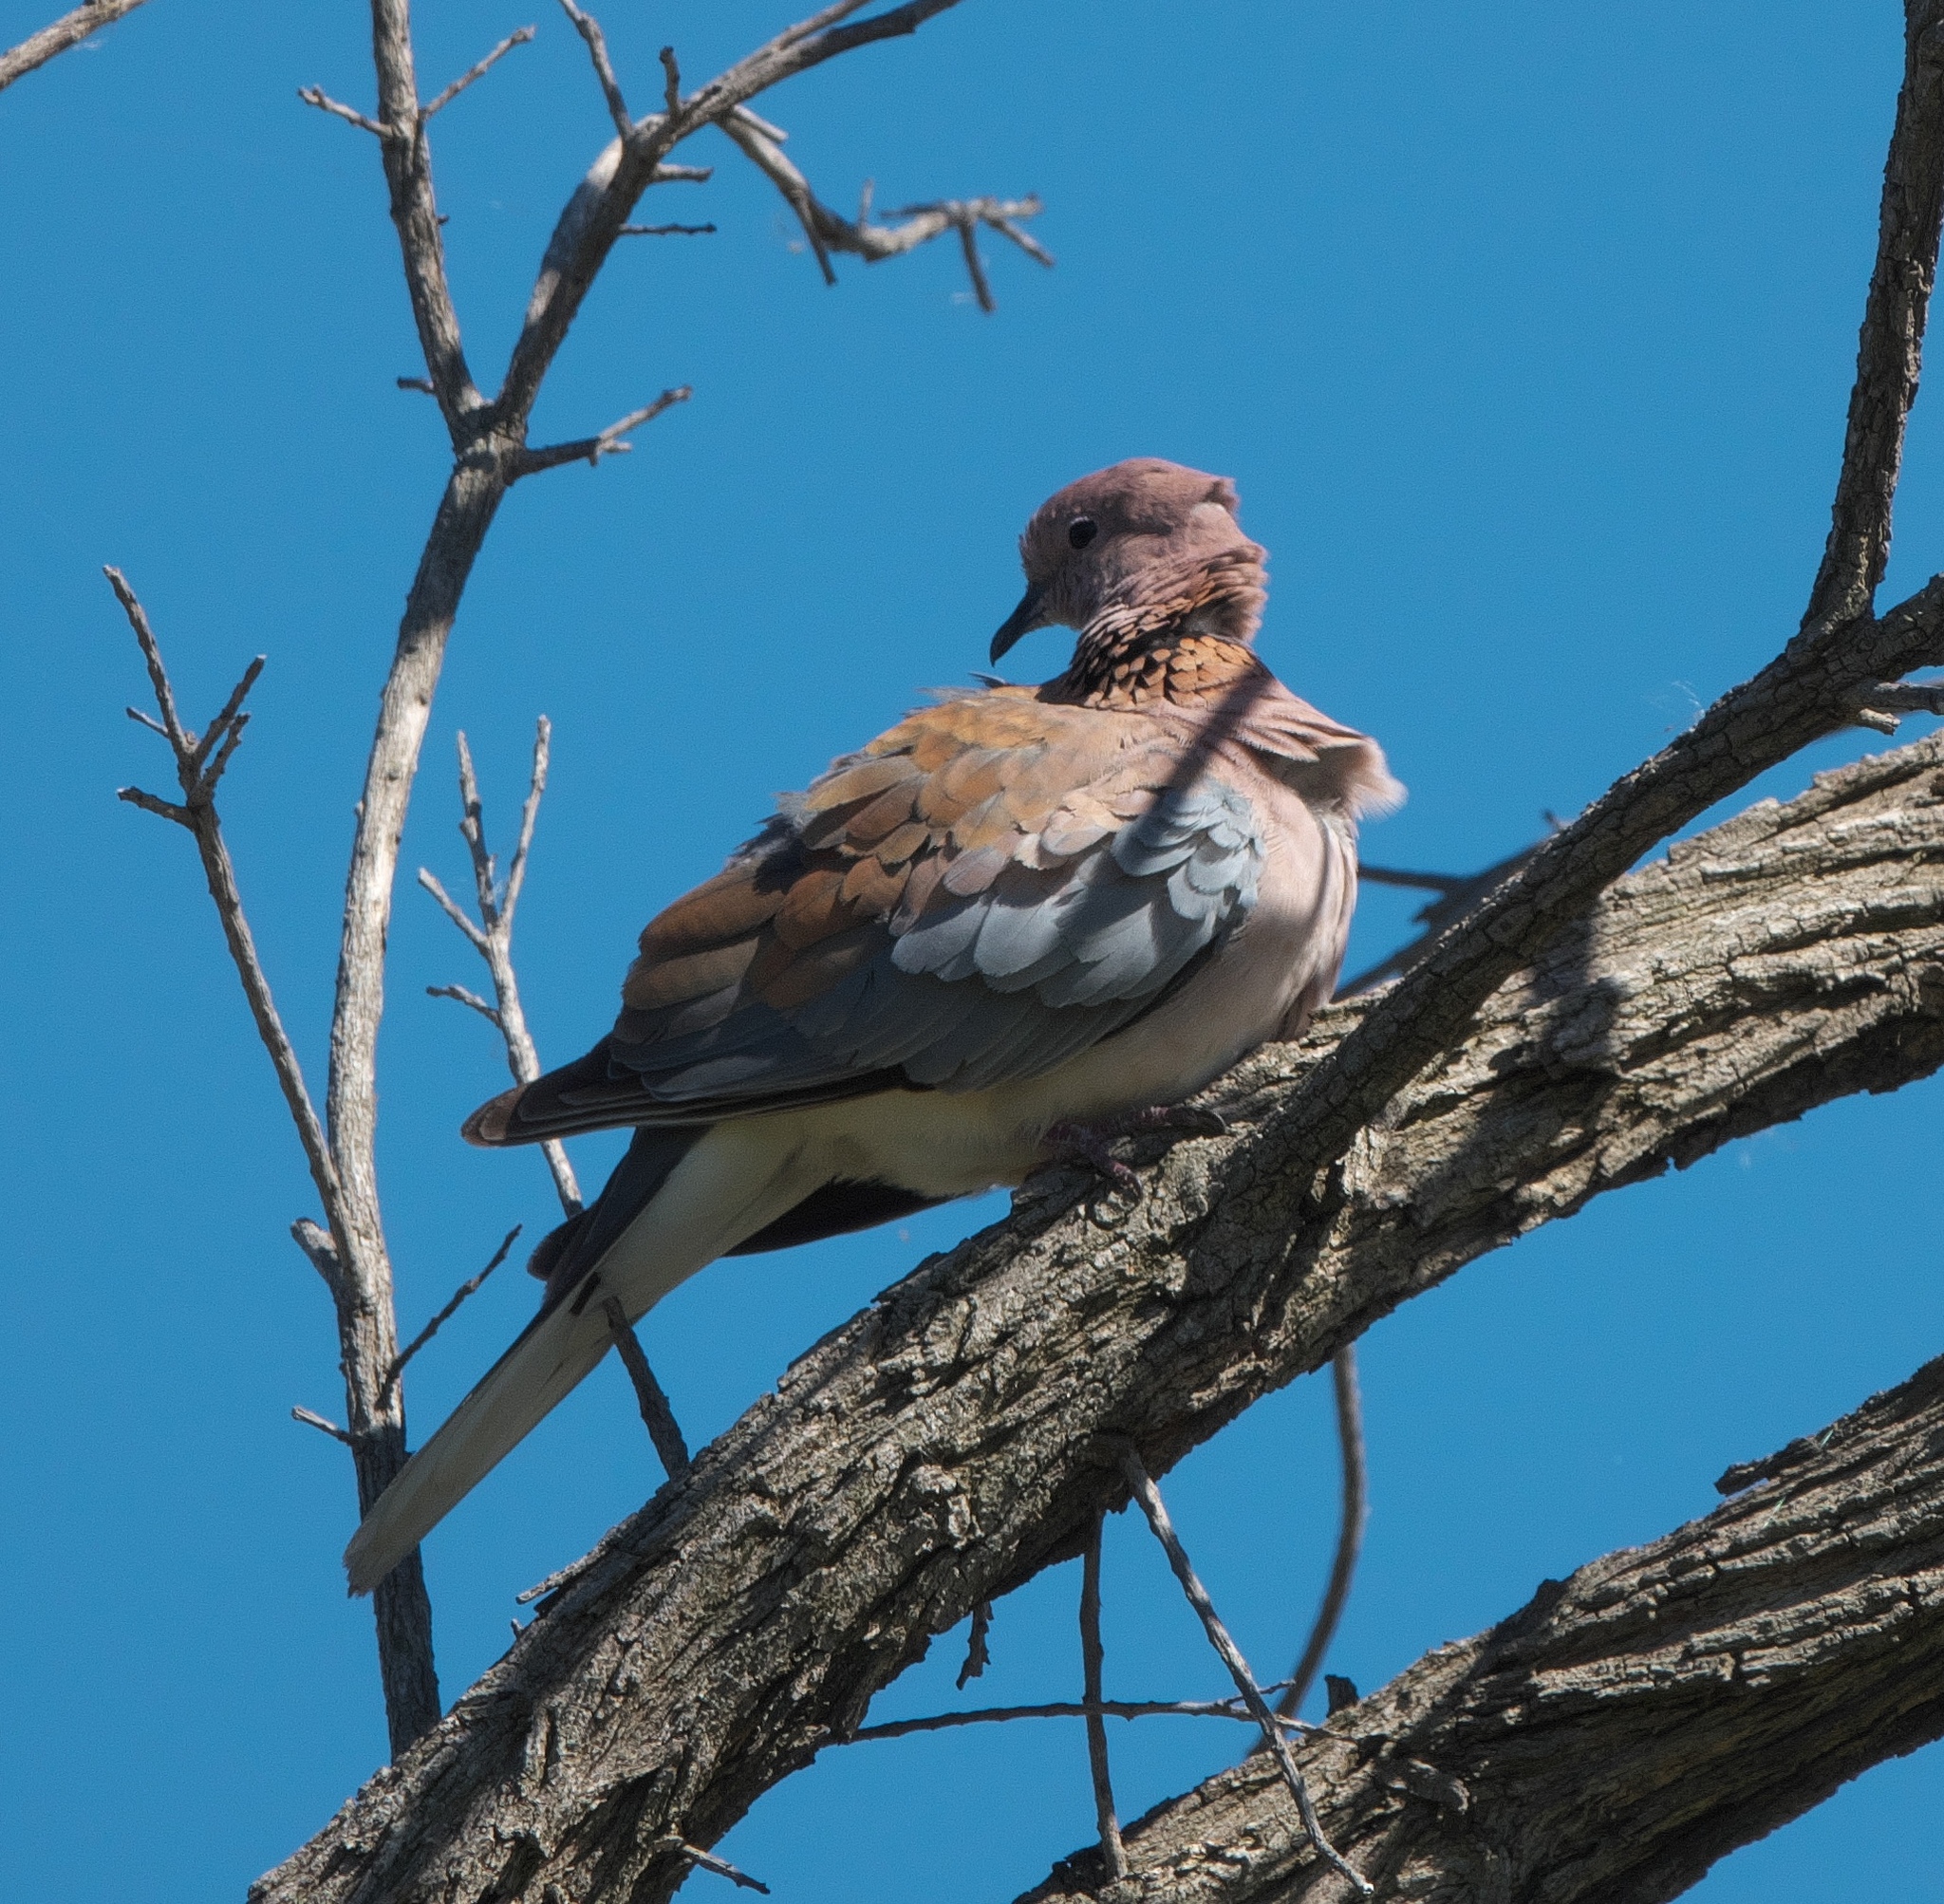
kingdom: Animalia
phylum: Chordata
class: Aves
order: Columbiformes
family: Columbidae
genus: Spilopelia
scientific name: Spilopelia senegalensis
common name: Laughing dove
